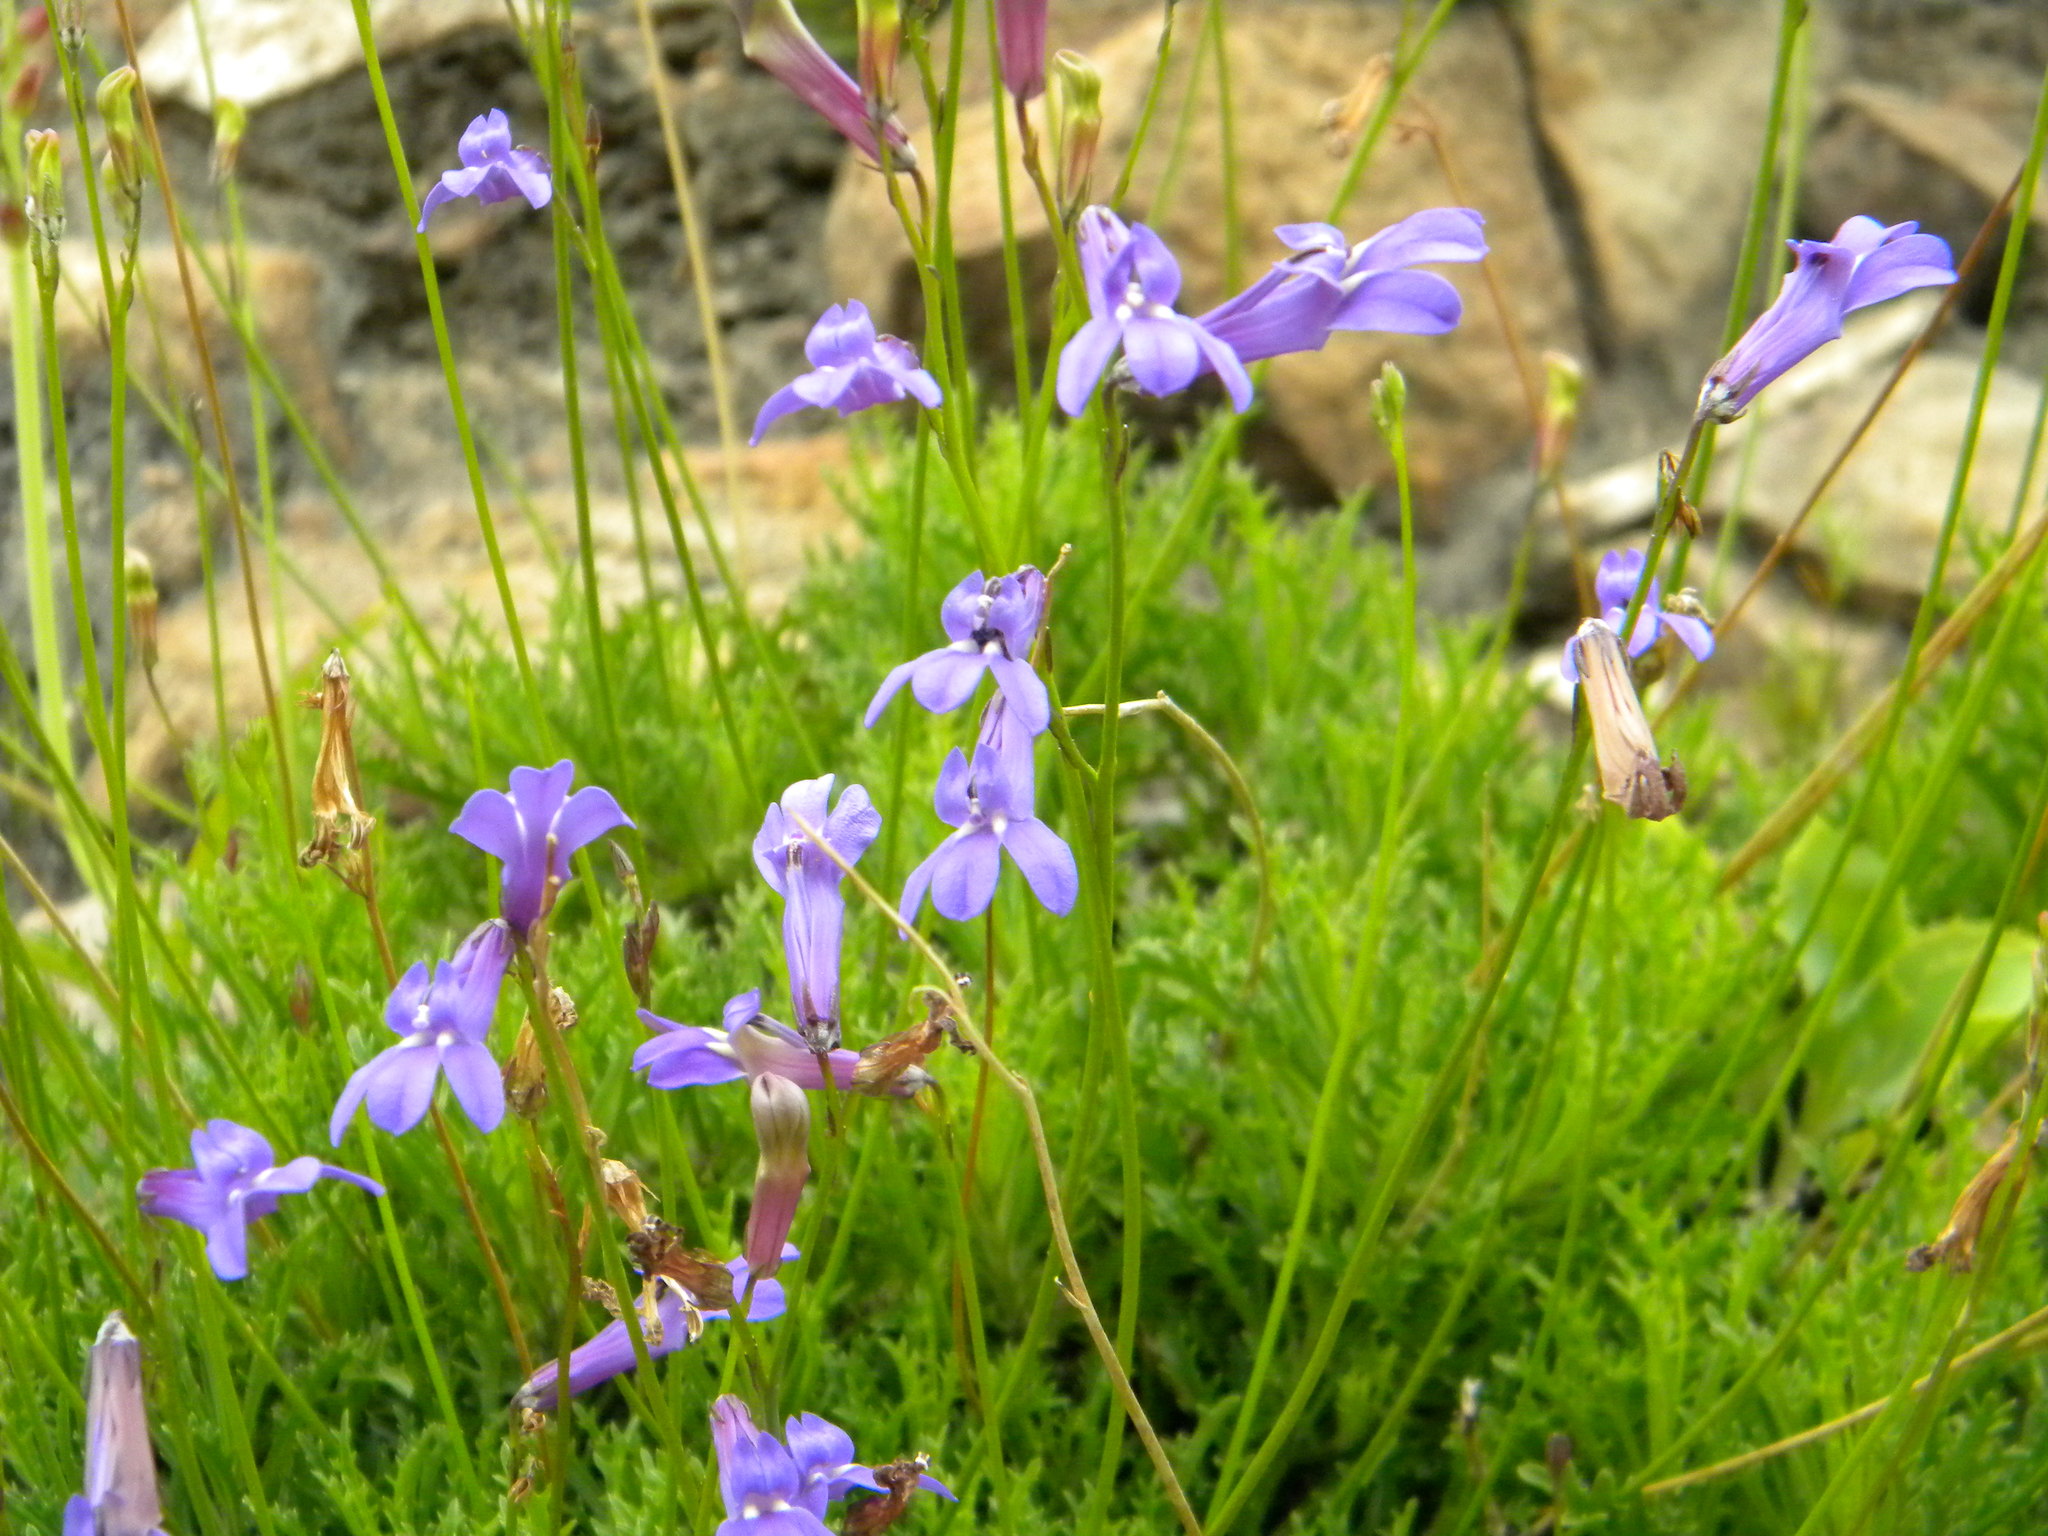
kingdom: Plantae
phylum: Tracheophyta
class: Magnoliopsida
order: Asterales
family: Campanulaceae
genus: Lobelia
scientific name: Lobelia coronopifolia
